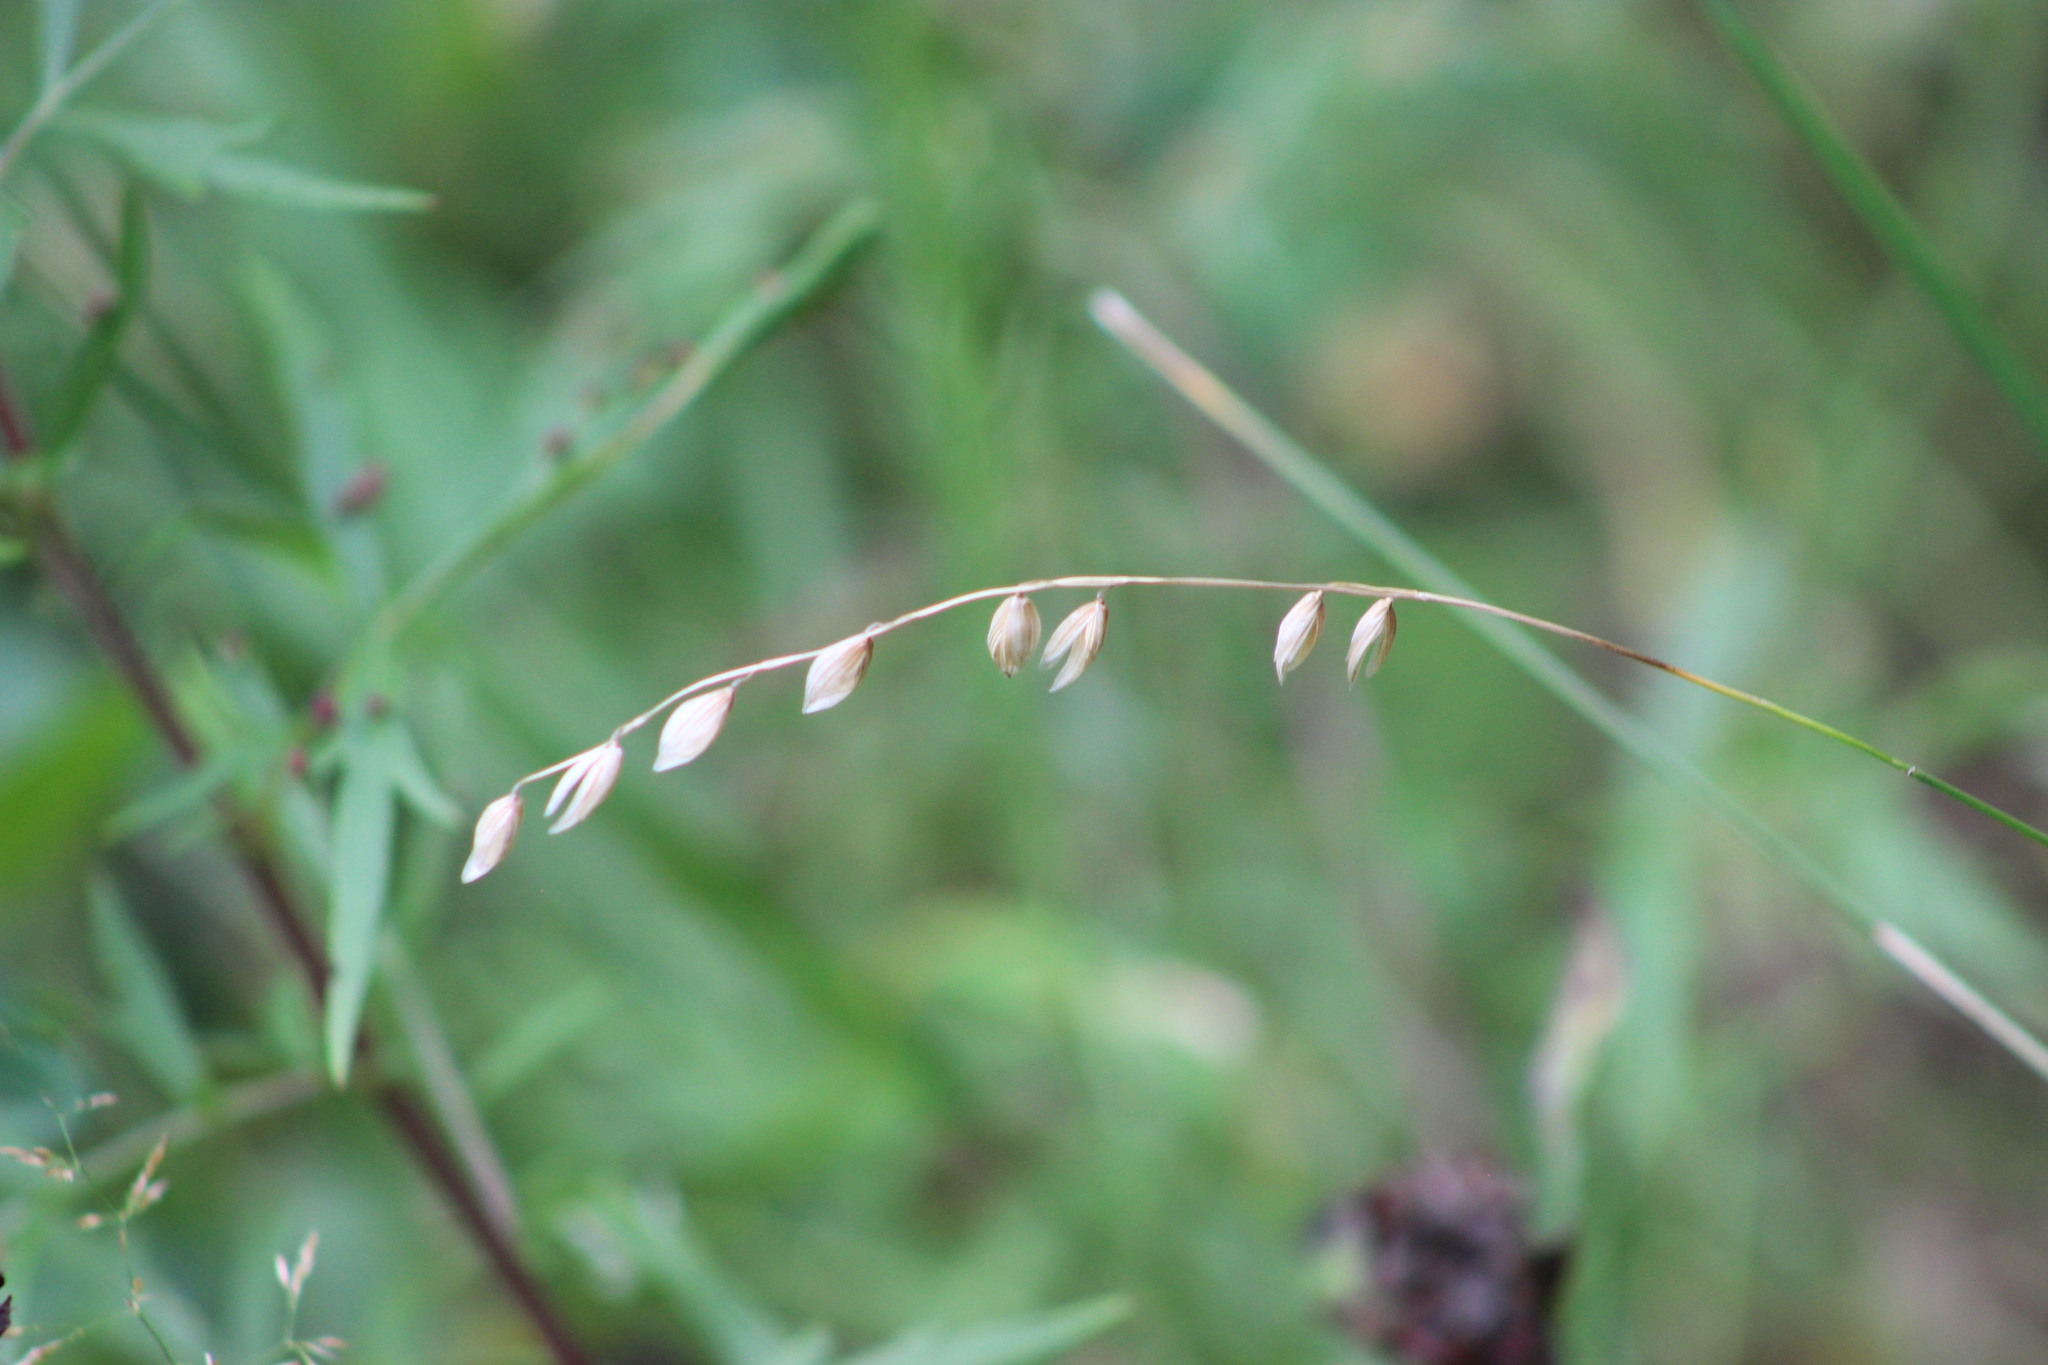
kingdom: Plantae
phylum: Tracheophyta
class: Liliopsida
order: Poales
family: Poaceae
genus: Melica
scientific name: Melica nutans
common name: Mountain melick
